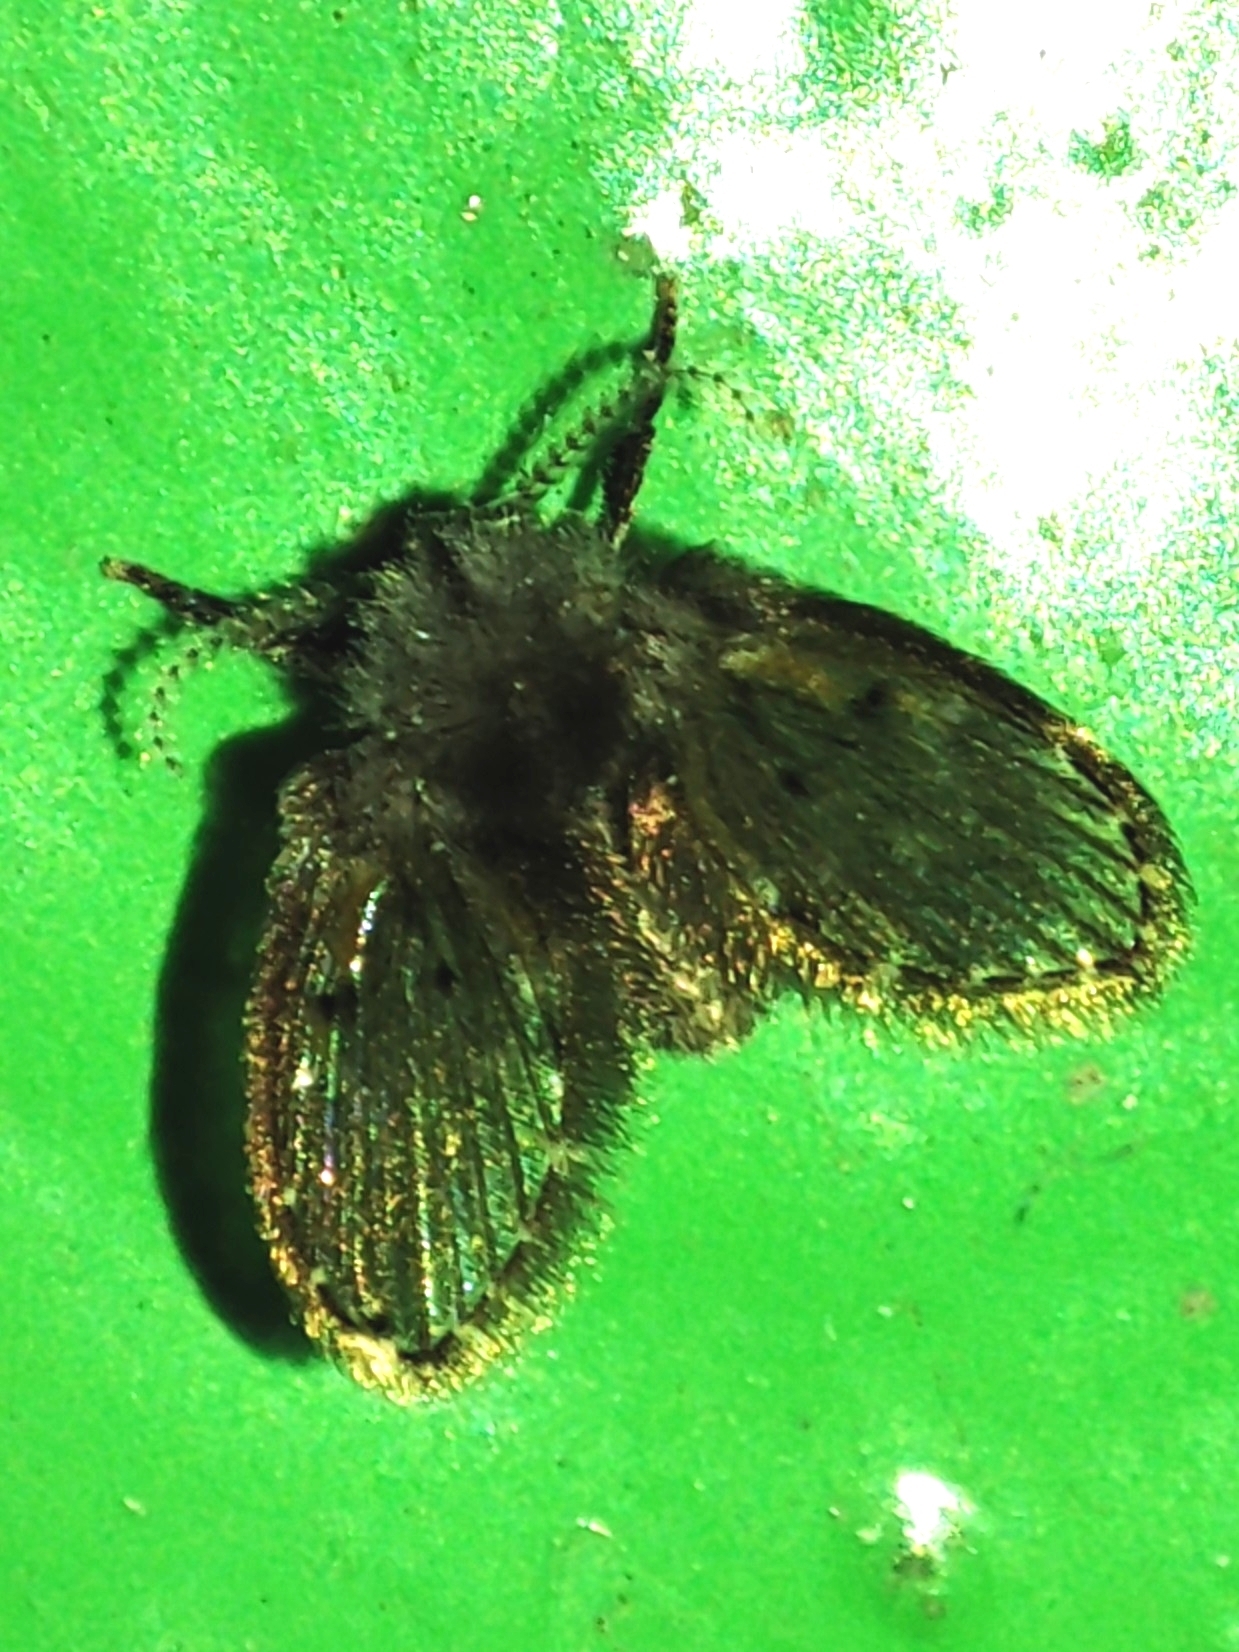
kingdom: Animalia
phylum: Arthropoda
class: Insecta
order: Diptera
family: Psychodidae
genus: Clogmia
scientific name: Clogmia albipunctatus
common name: White-spotted moth fly
